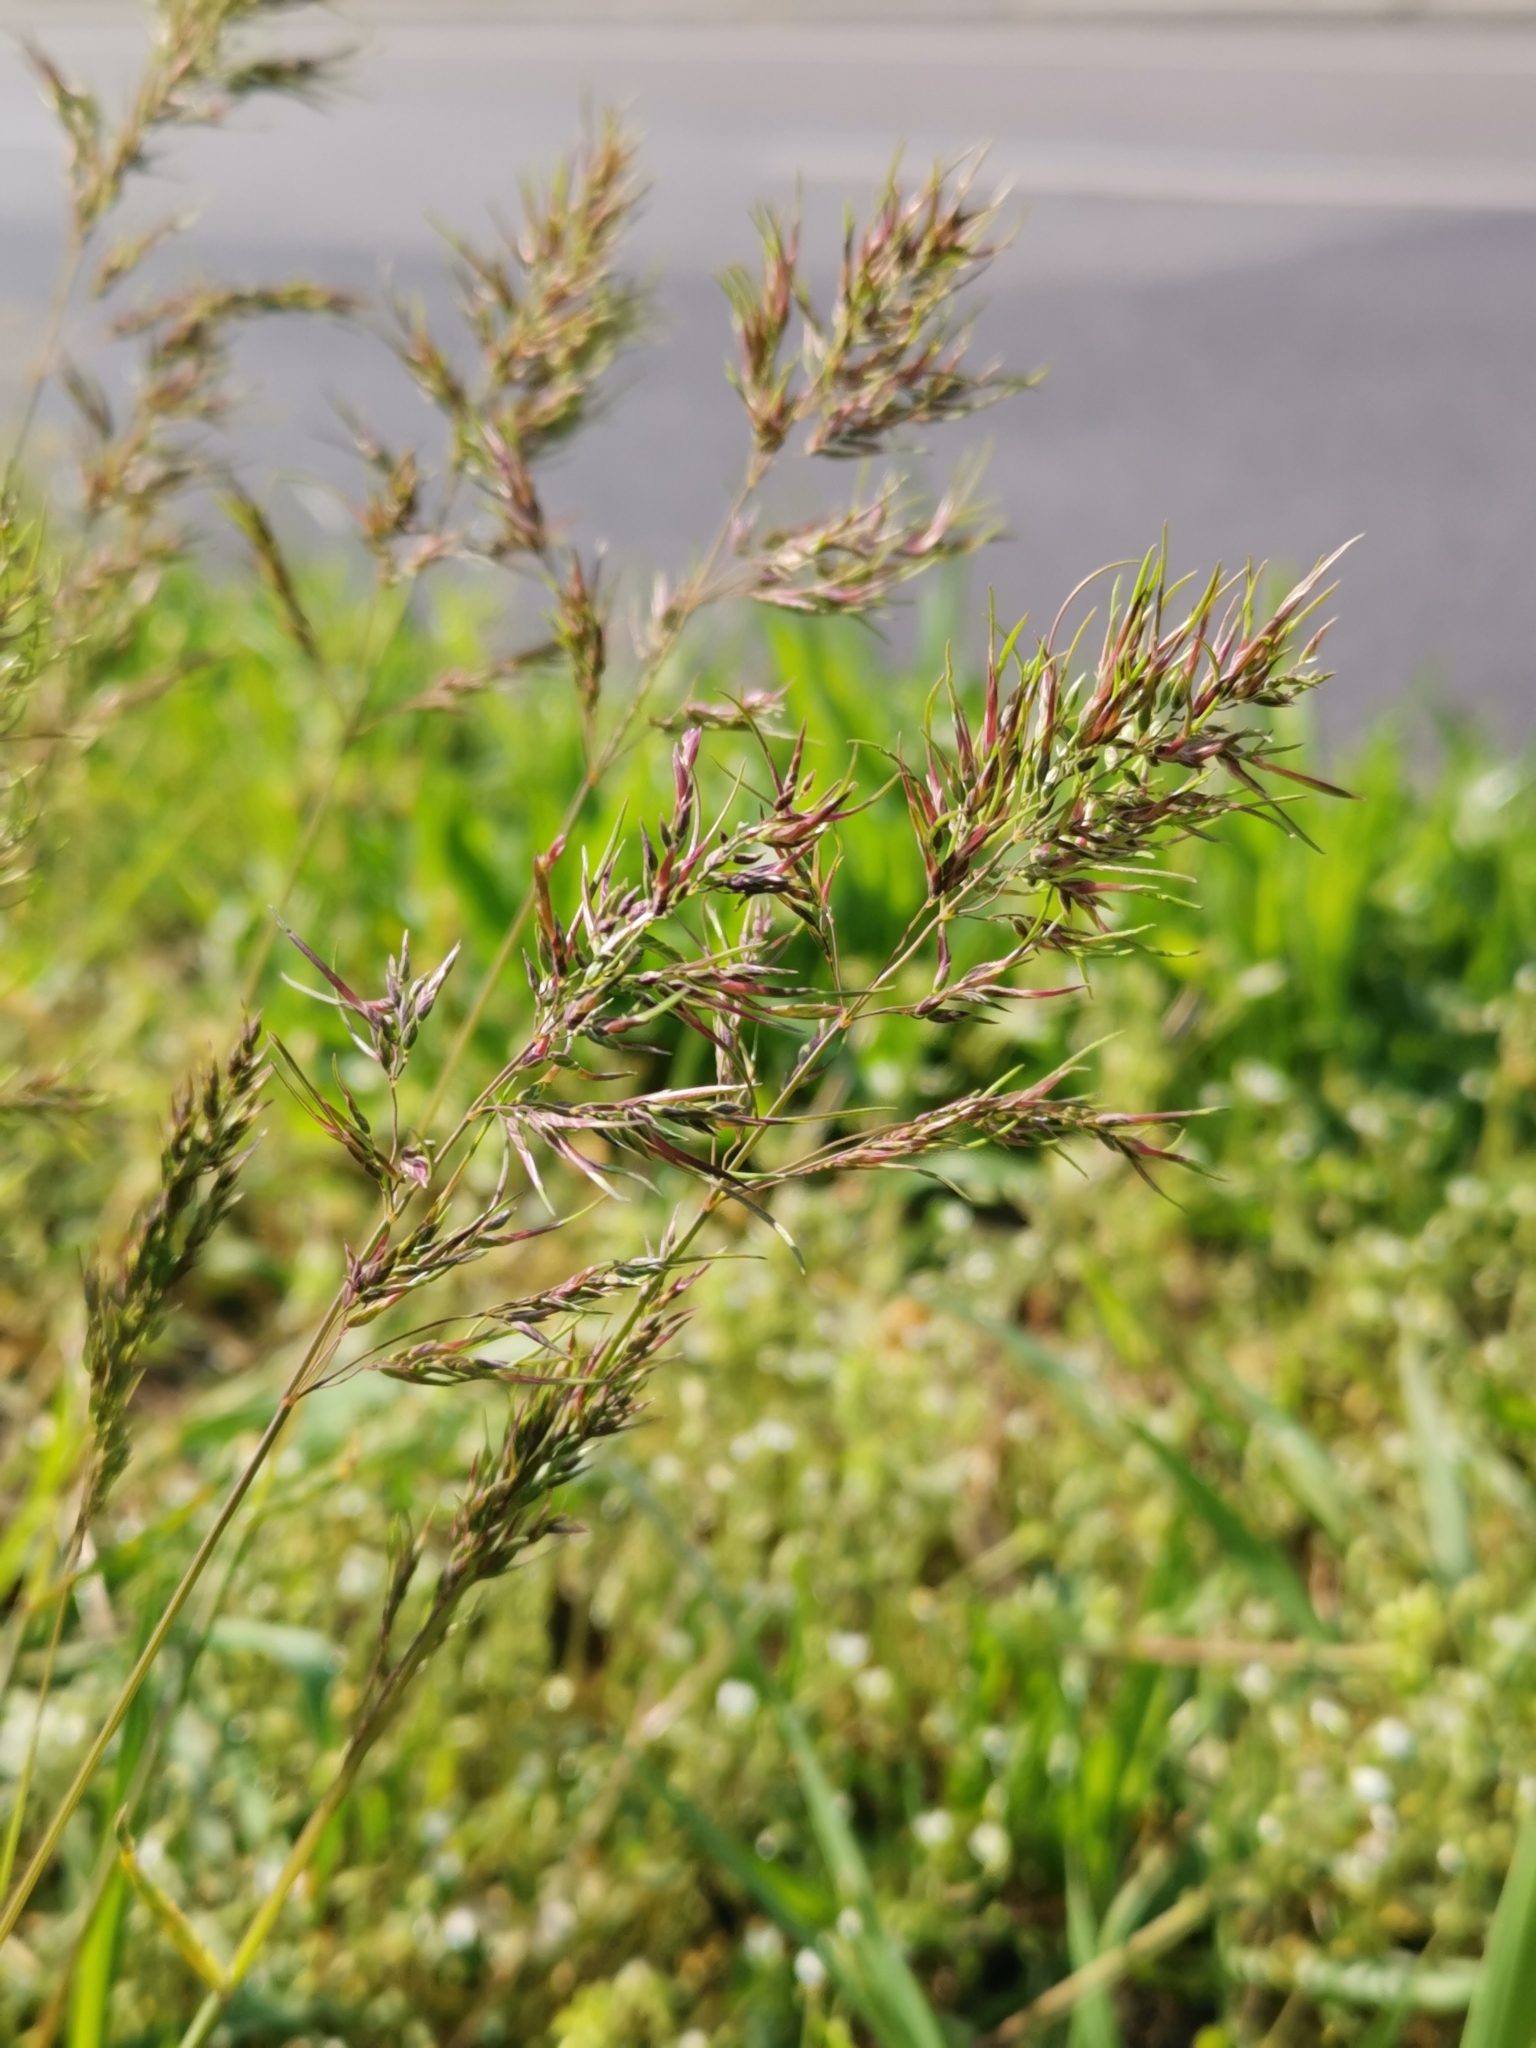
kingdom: Plantae
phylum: Tracheophyta
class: Liliopsida
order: Poales
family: Poaceae
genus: Poa
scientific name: Poa bulbosa
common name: Bulbous bluegrass
